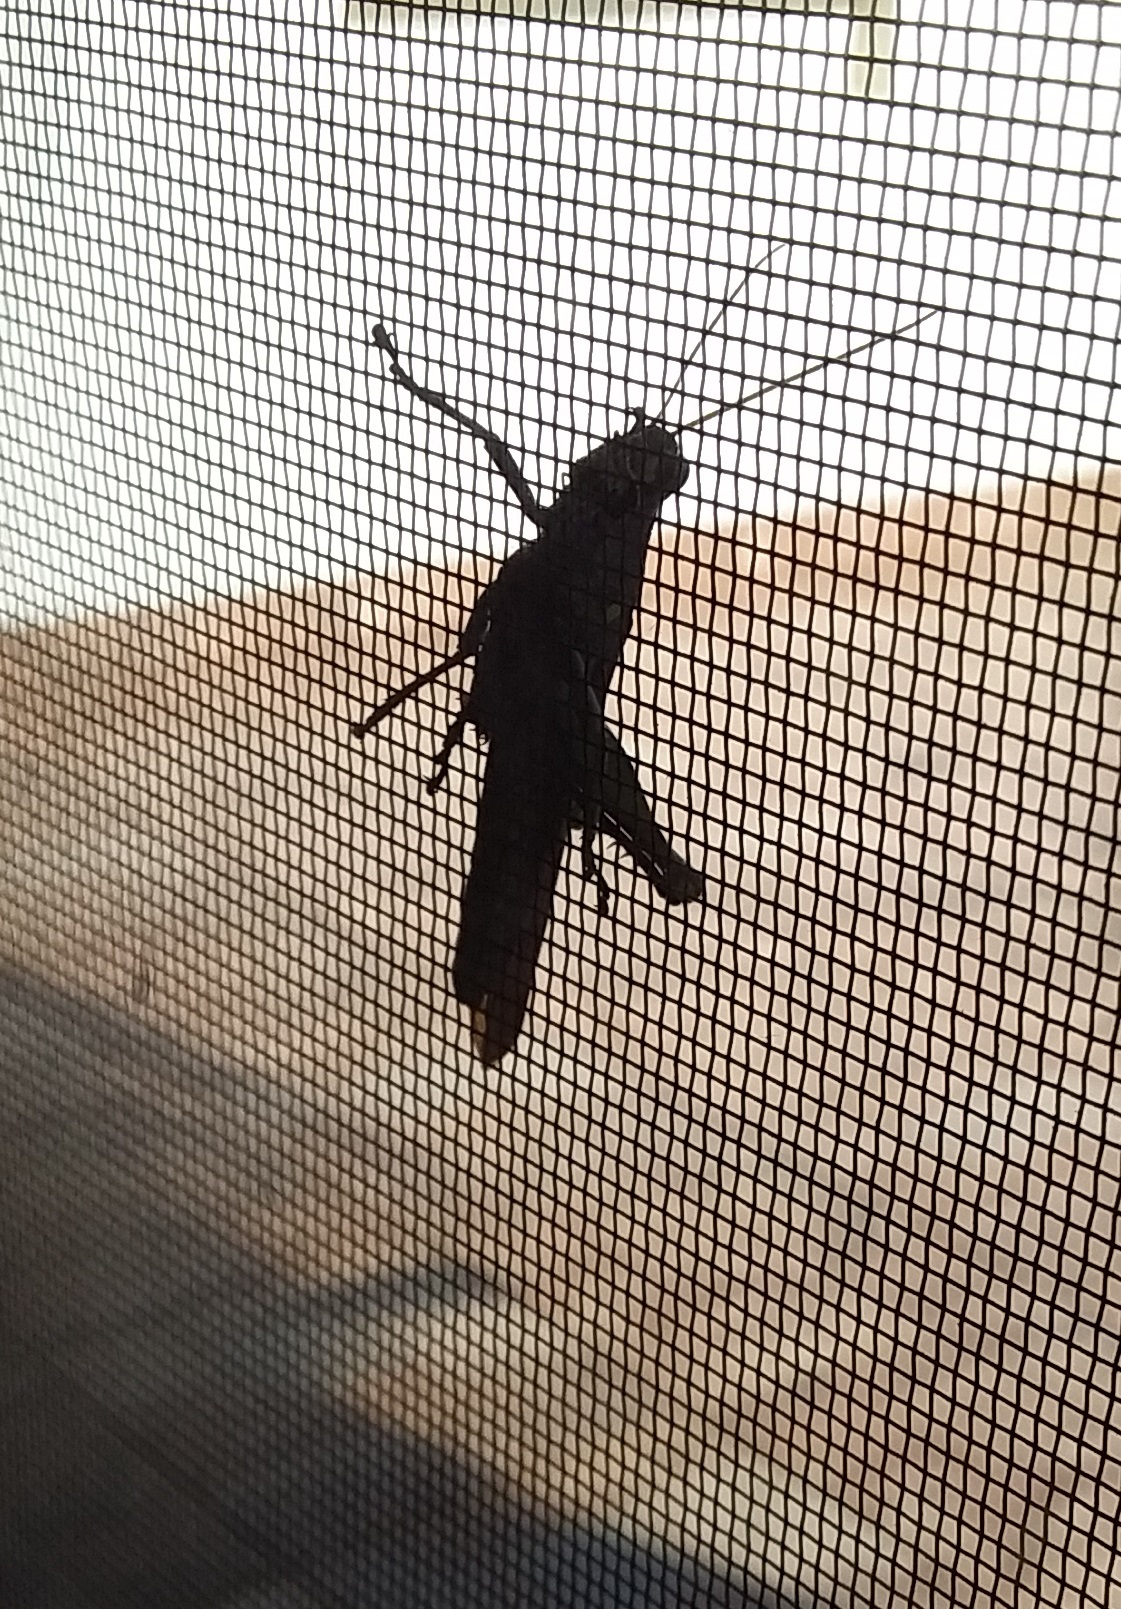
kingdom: Animalia
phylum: Arthropoda
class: Insecta
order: Orthoptera
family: Acrididae
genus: Schistocerca
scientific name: Schistocerca obscura
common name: Obscure bird grasshopper
